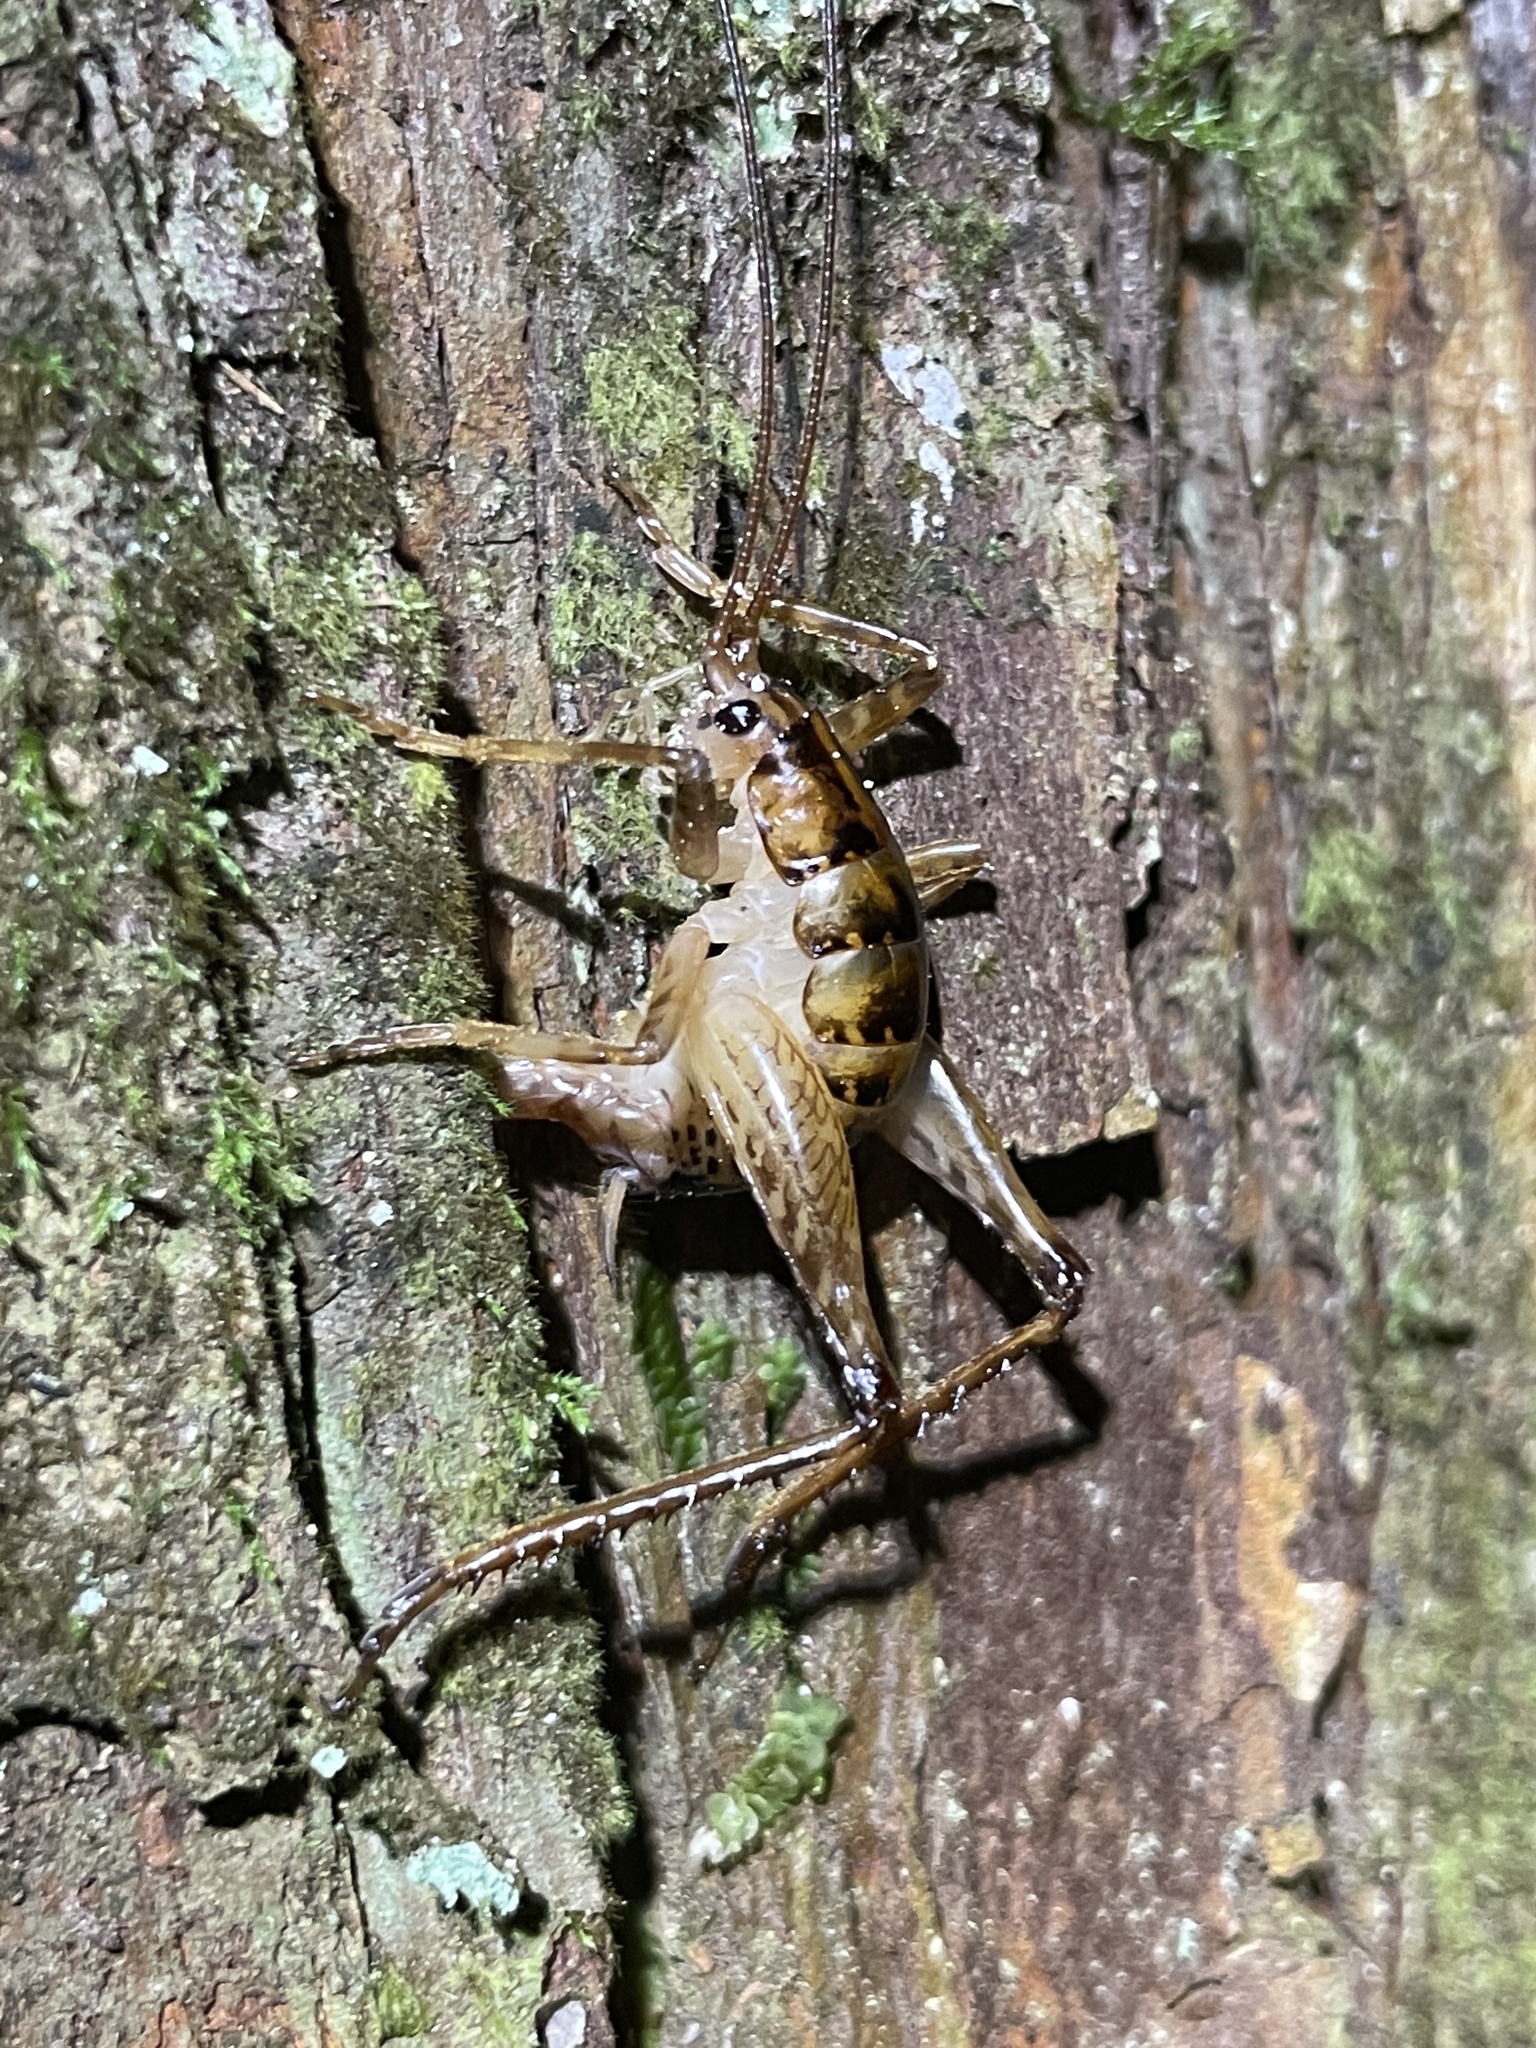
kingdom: Animalia
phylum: Arthropoda
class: Insecta
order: Orthoptera
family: Rhaphidophoridae
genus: Talitropsis
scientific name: Talitropsis sedilloti
